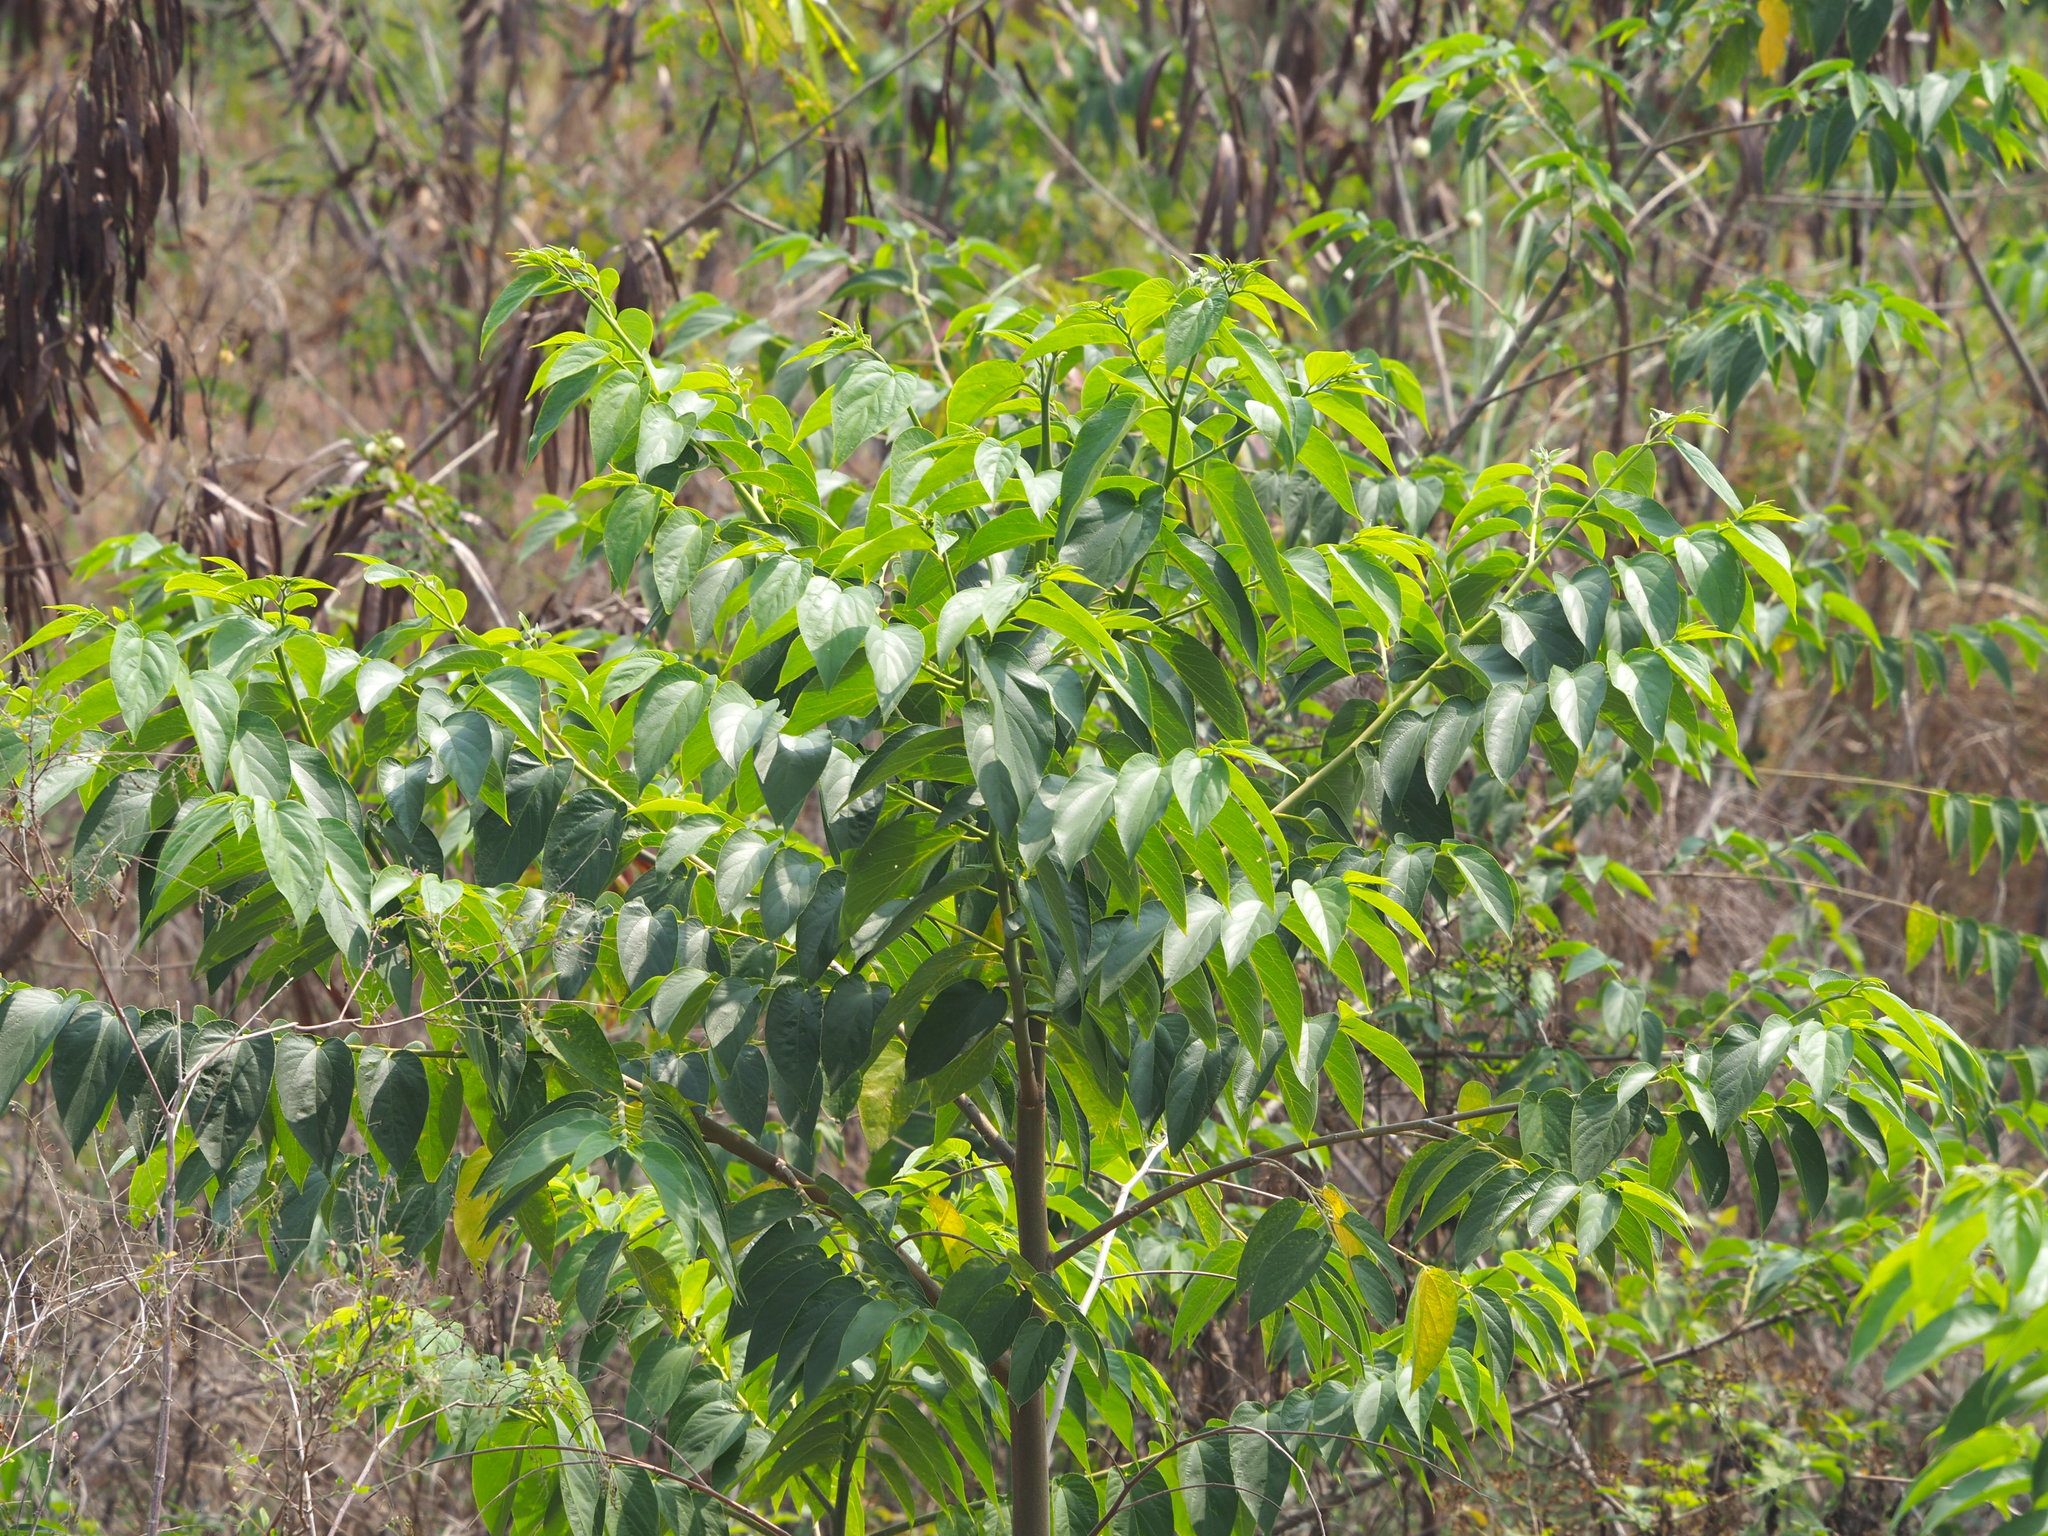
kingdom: Plantae
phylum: Tracheophyta
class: Magnoliopsida
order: Rosales
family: Cannabaceae
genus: Trema
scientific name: Trema orientale
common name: Indian charcoal tree
